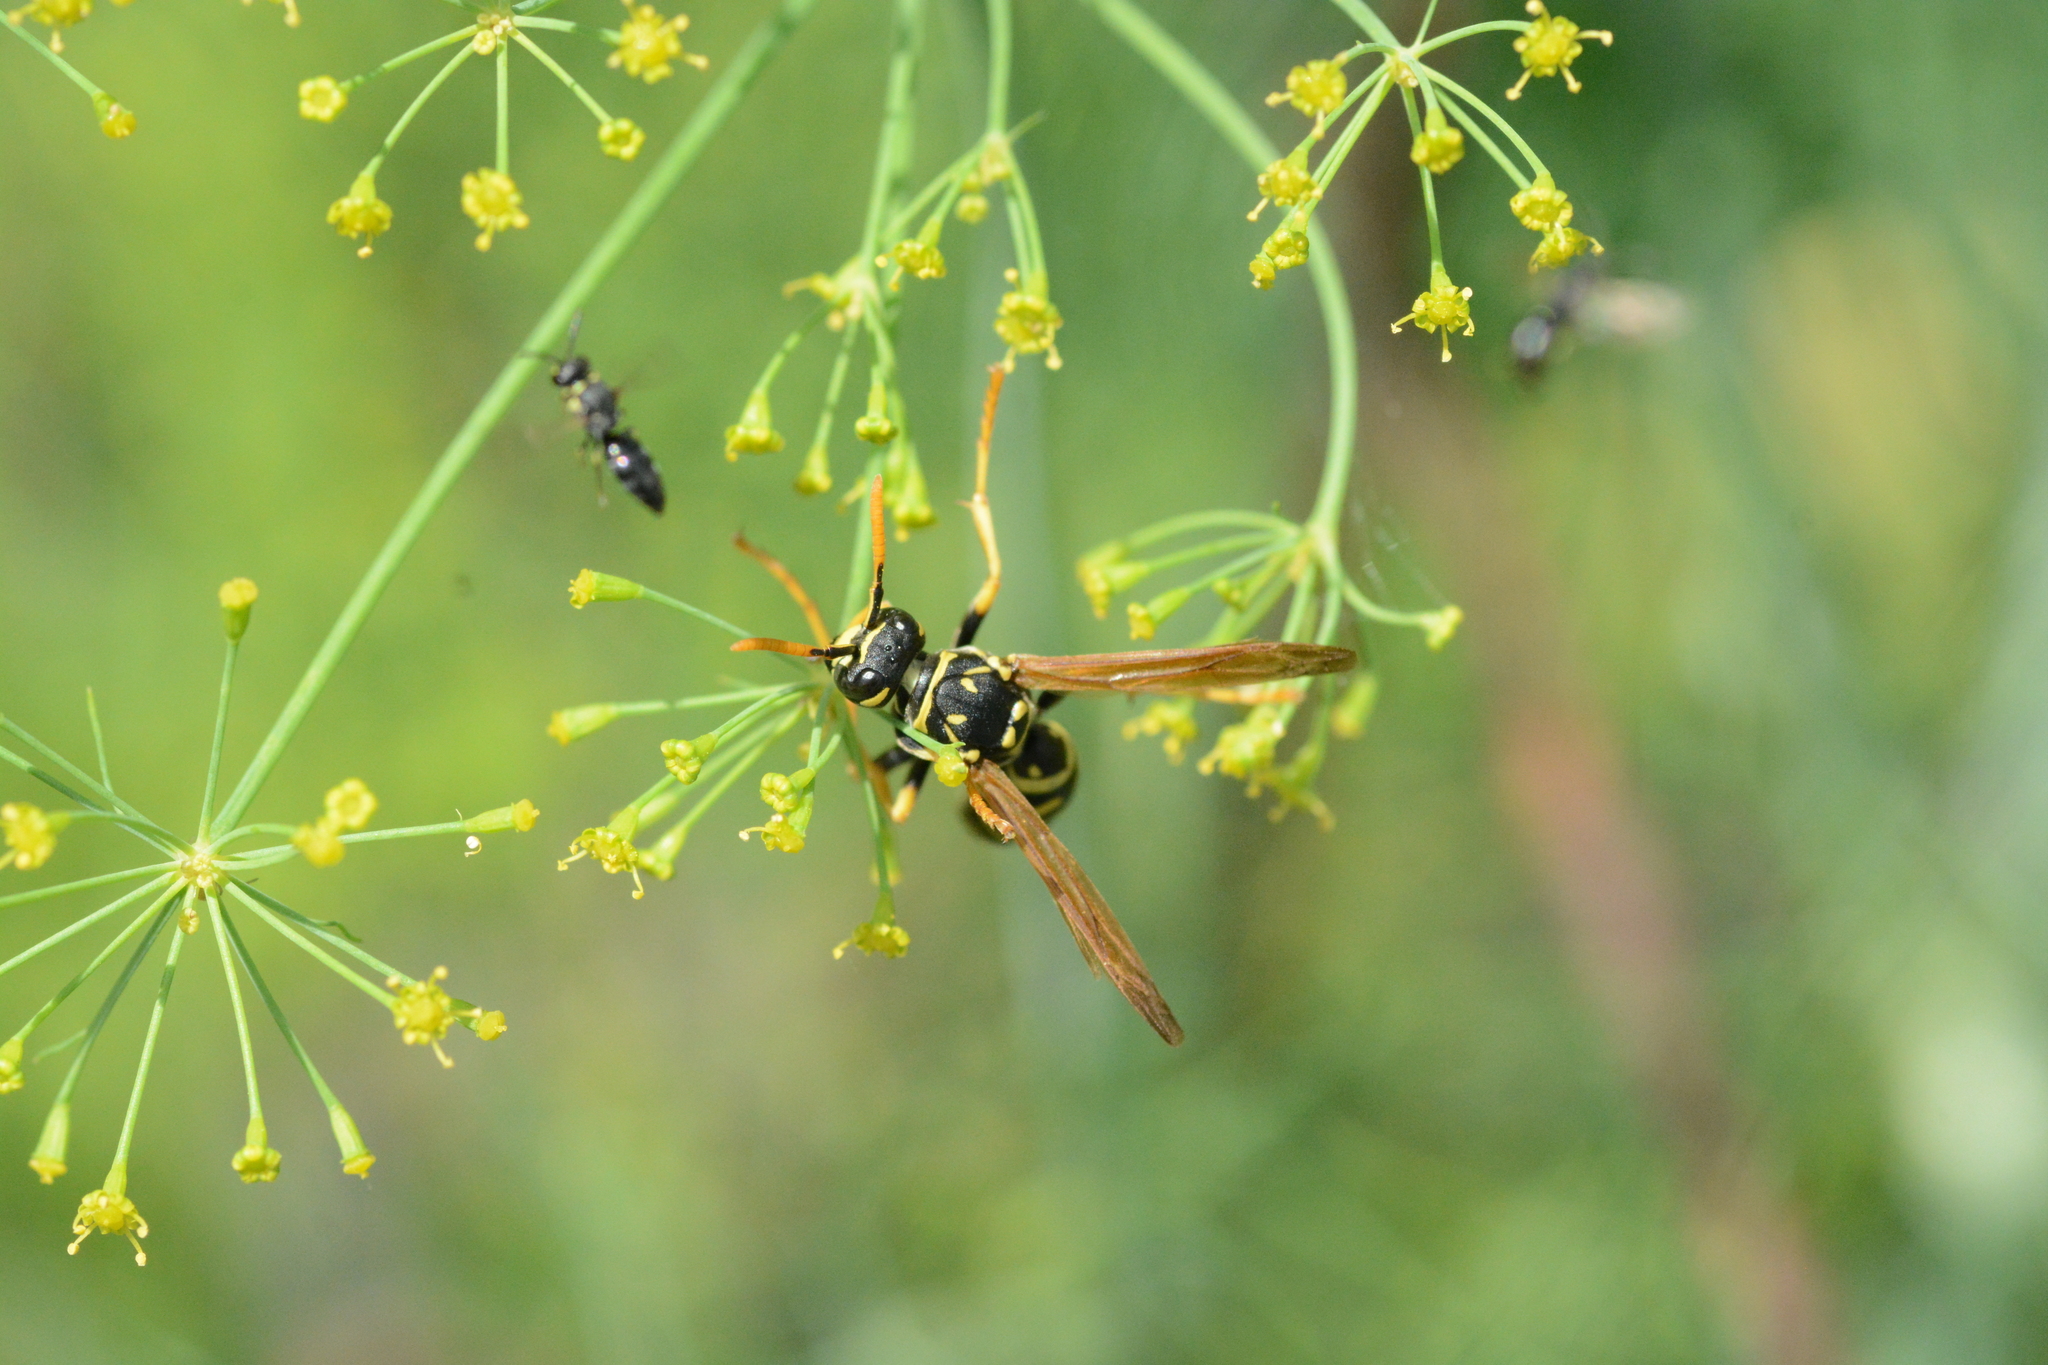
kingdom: Animalia
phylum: Arthropoda
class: Insecta
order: Hymenoptera
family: Eumenidae
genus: Polistes
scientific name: Polistes dominula
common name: Paper wasp
